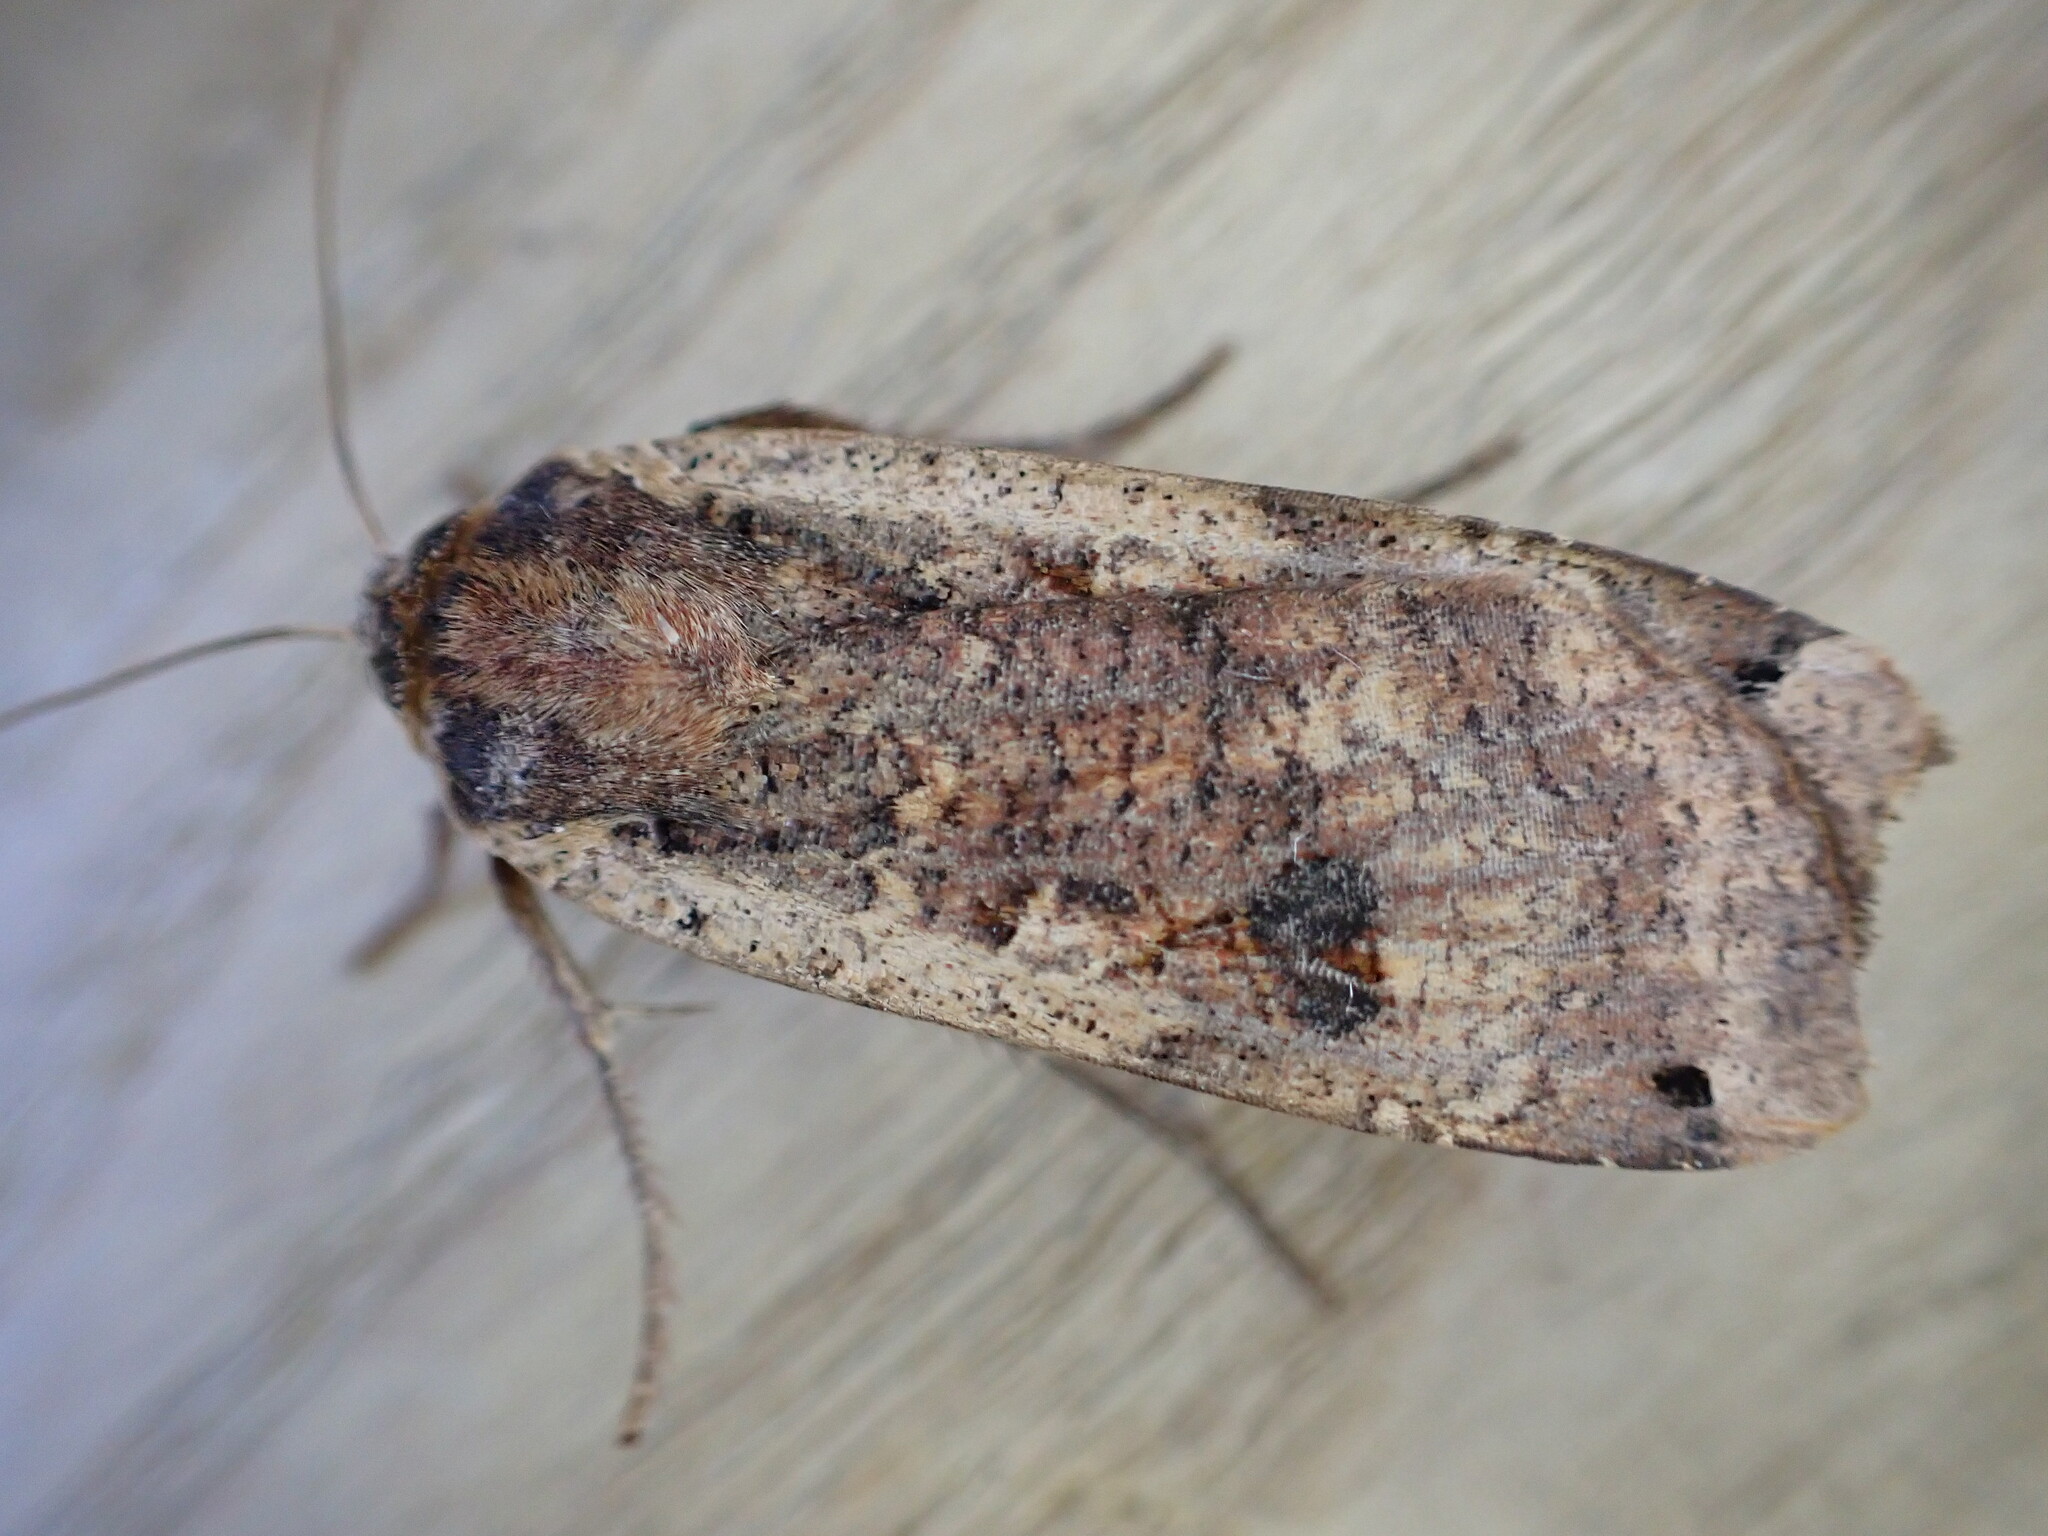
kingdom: Animalia
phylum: Arthropoda
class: Insecta
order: Lepidoptera
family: Noctuidae
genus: Noctua
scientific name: Noctua pronuba
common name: Large yellow underwing
